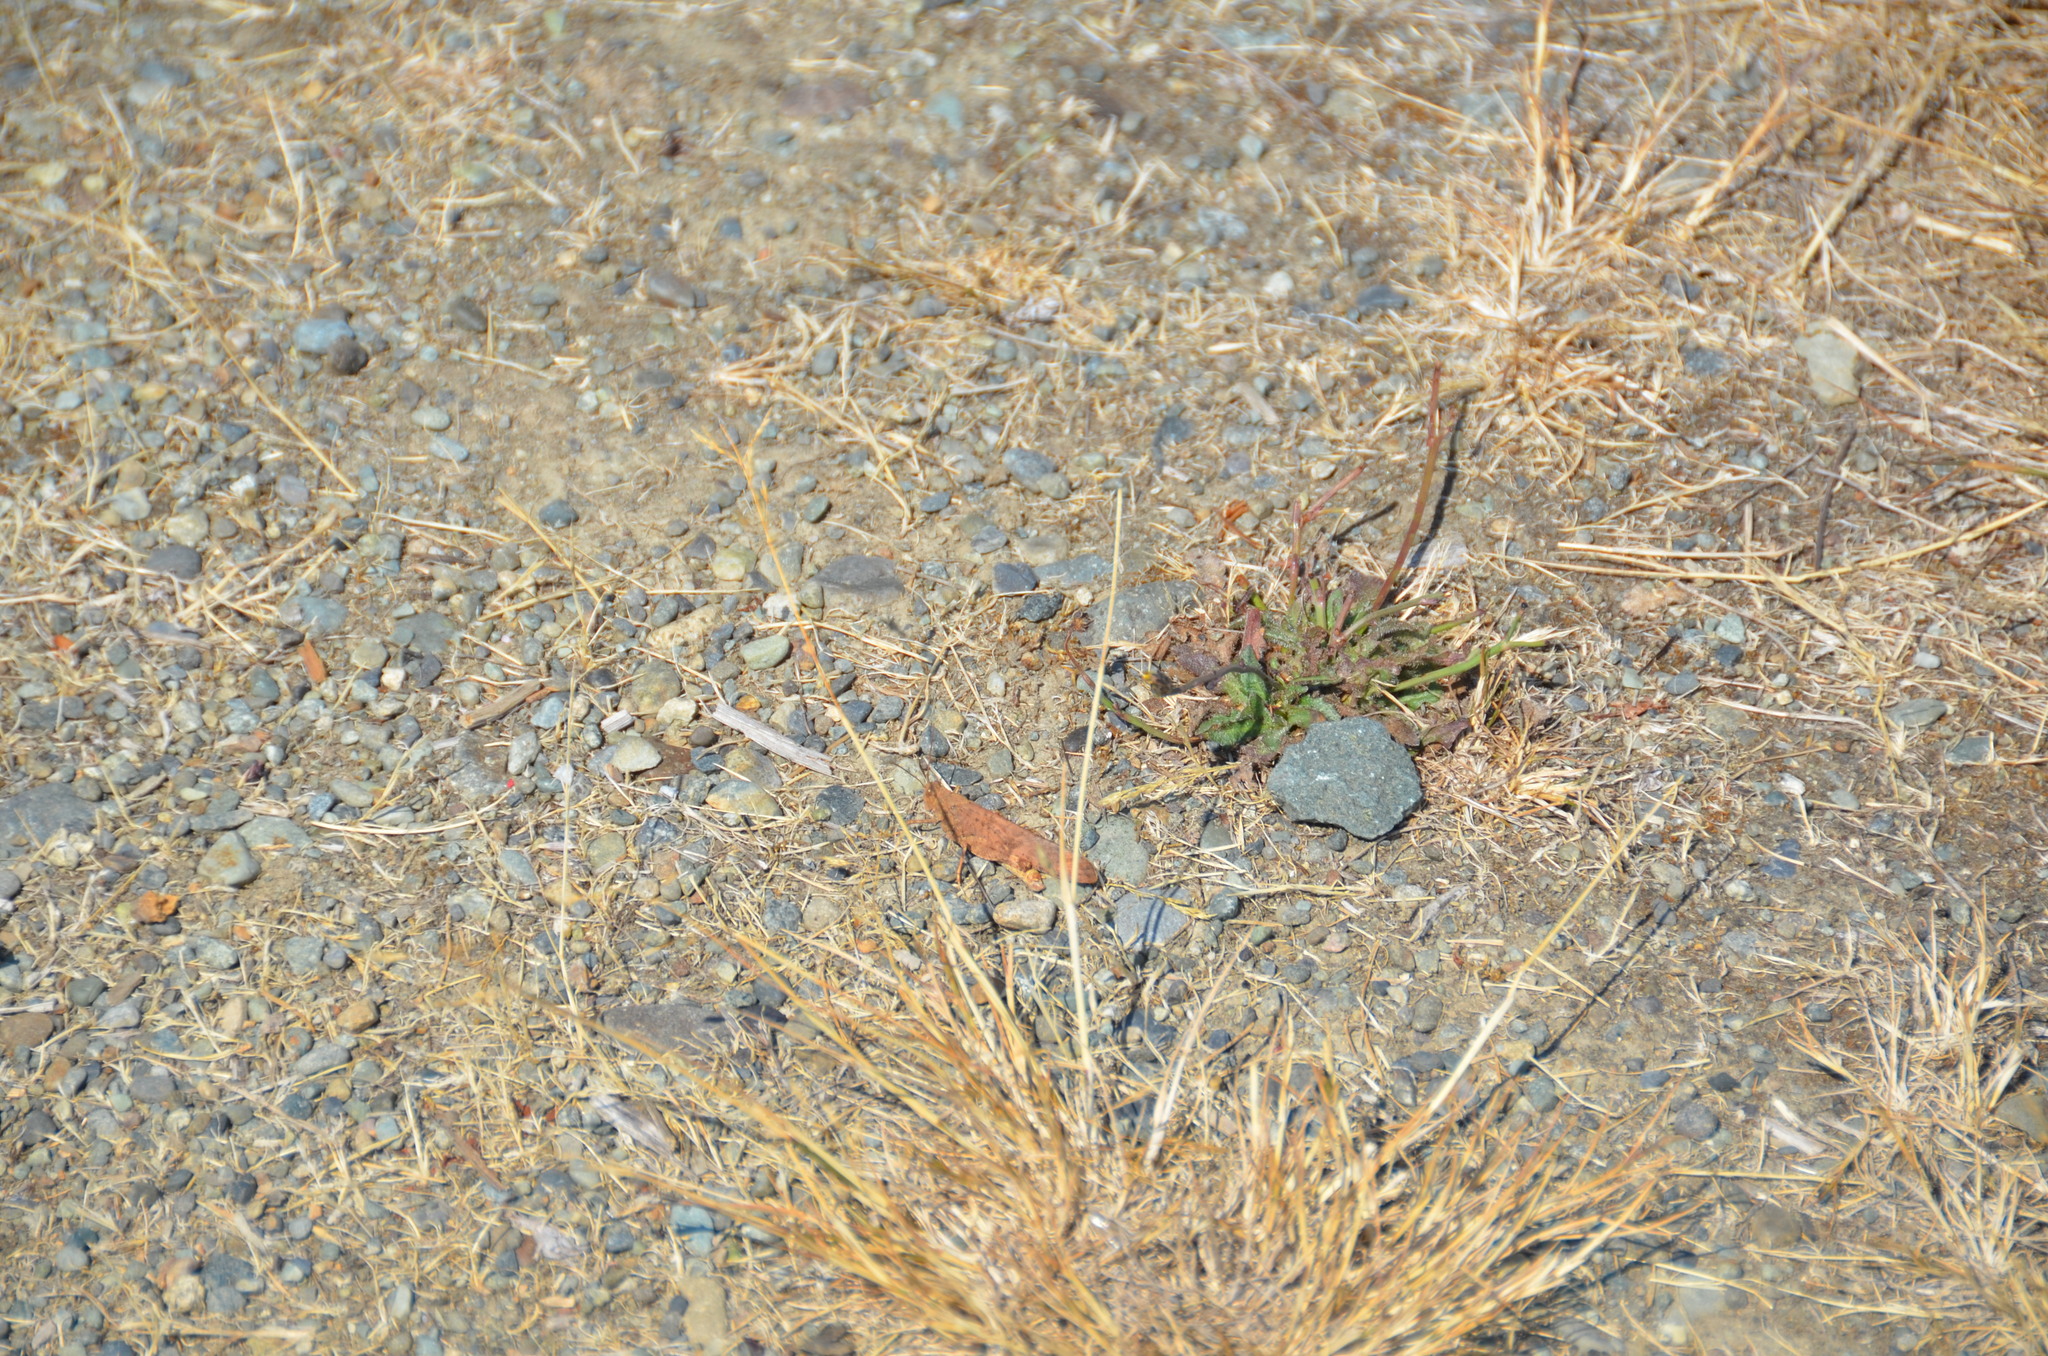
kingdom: Animalia
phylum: Arthropoda
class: Insecta
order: Orthoptera
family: Acrididae
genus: Dissosteira
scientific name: Dissosteira carolina
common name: Carolina grasshopper
